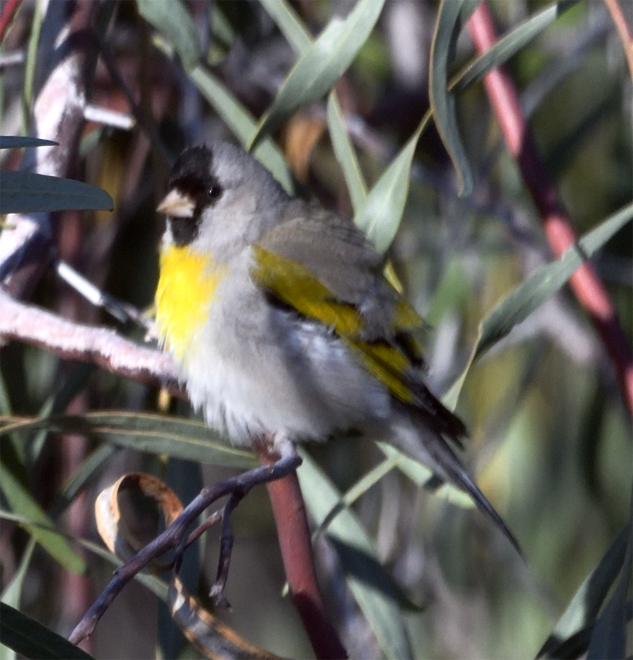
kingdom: Animalia
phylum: Chordata
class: Aves
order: Passeriformes
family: Fringillidae
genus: Spinus
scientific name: Spinus lawrencei
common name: Lawrence's goldfinch
